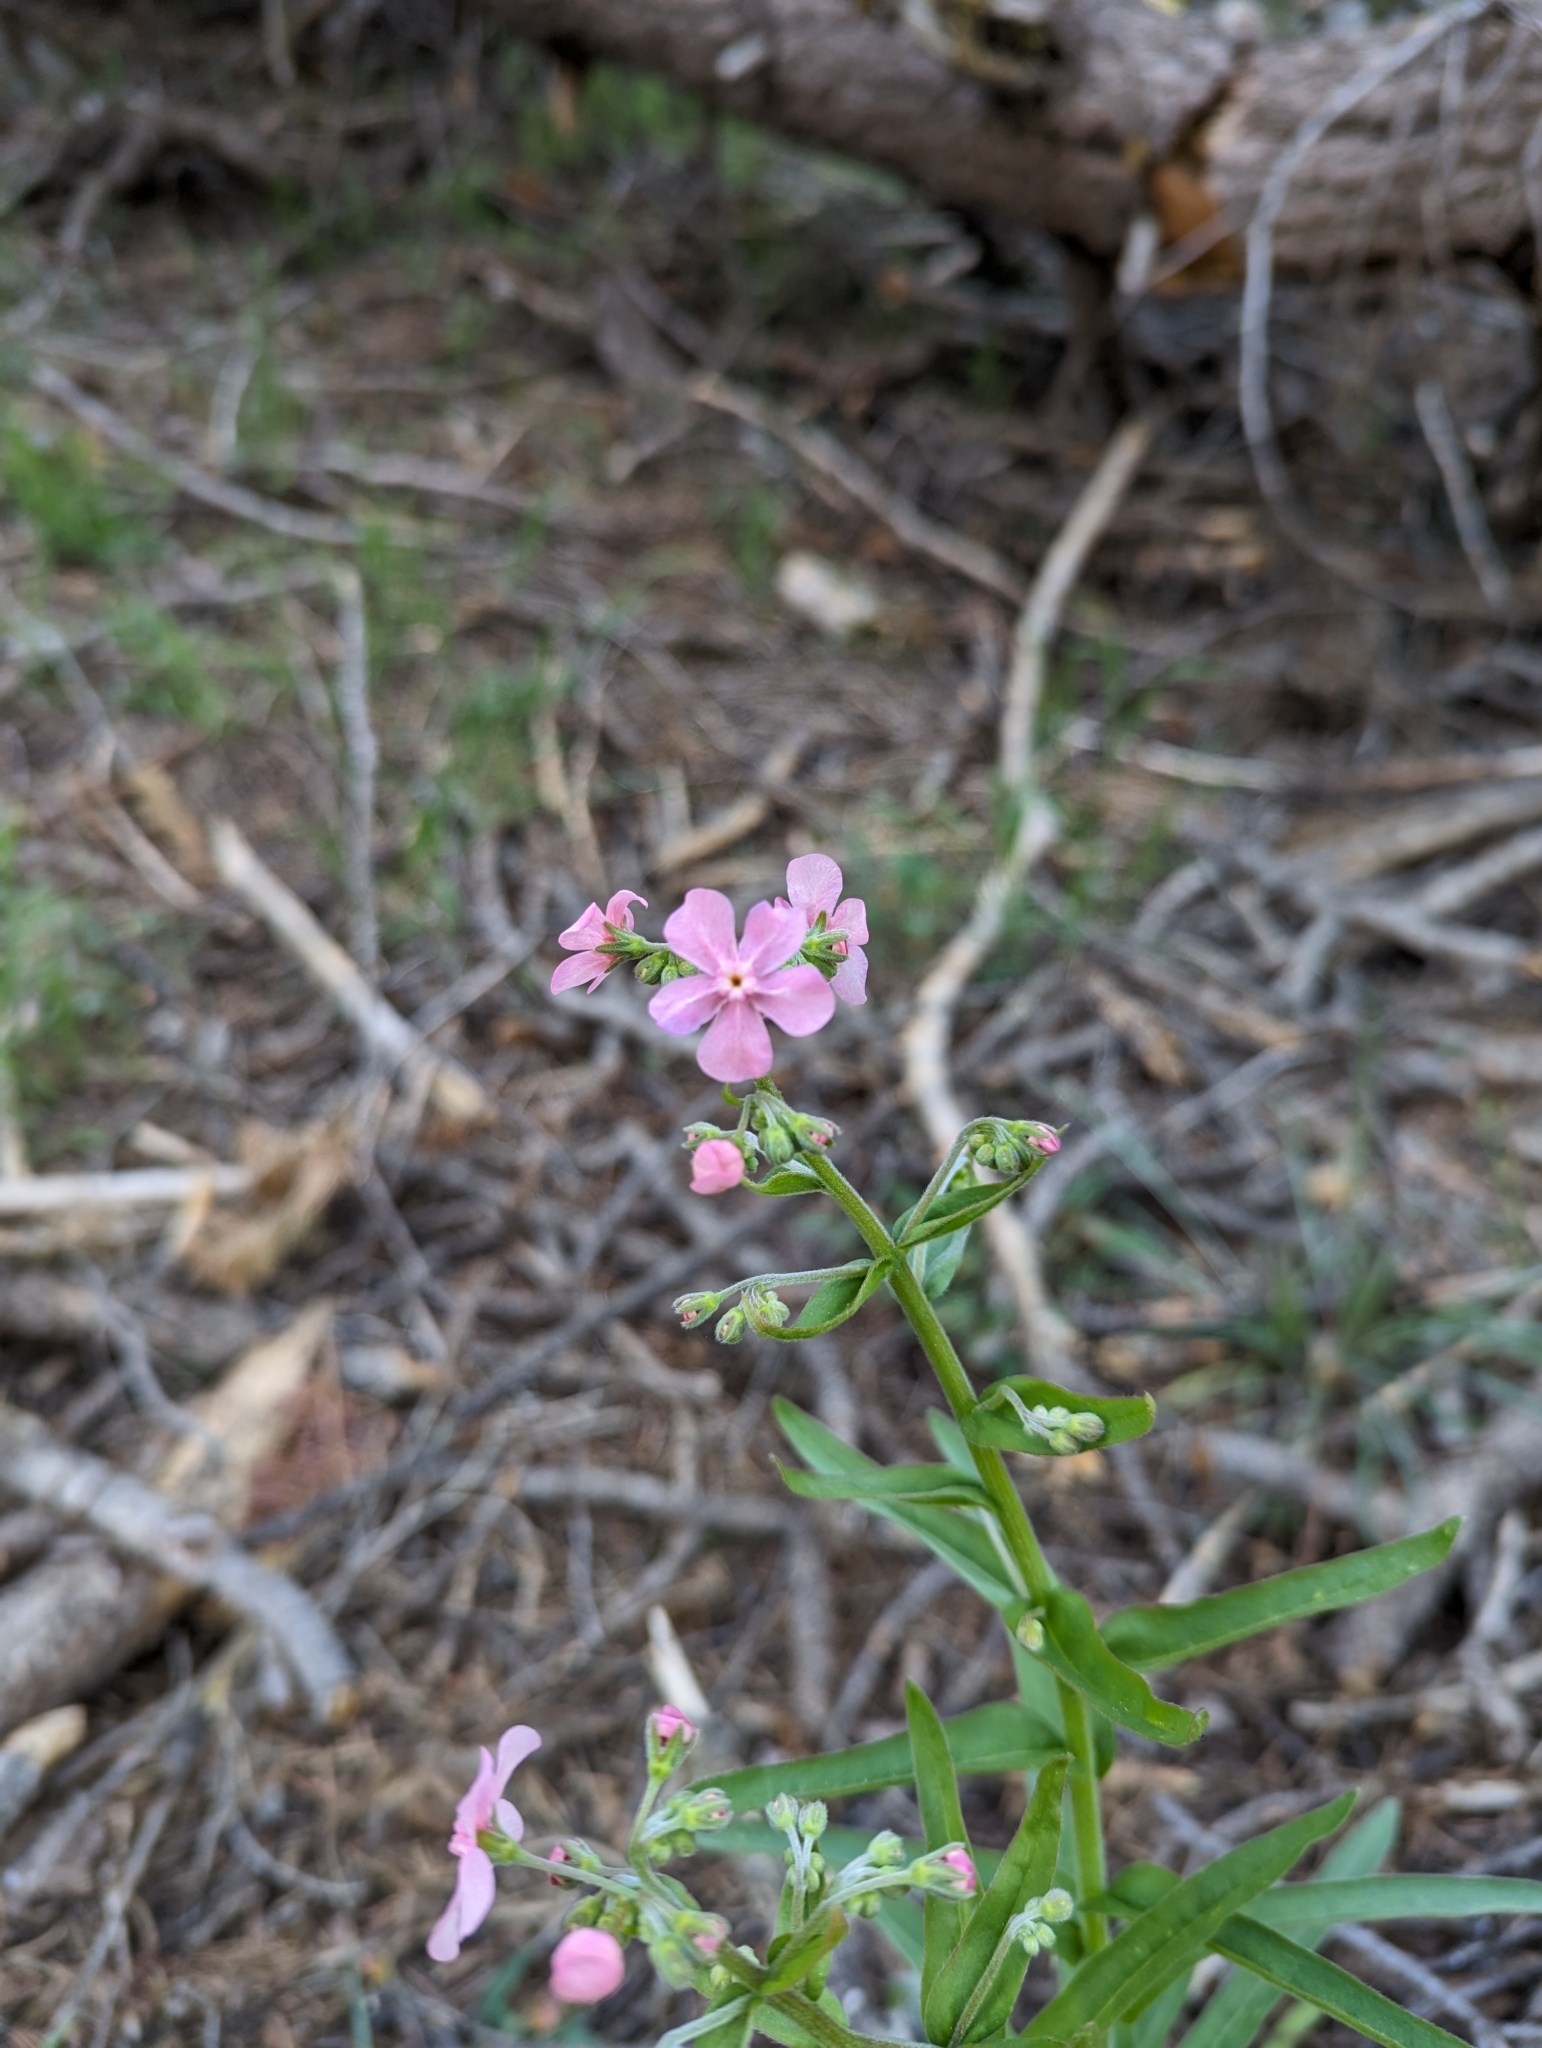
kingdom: Plantae
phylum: Tracheophyta
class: Magnoliopsida
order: Boraginales
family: Boraginaceae
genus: Hackelia
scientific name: Hackelia mundula
